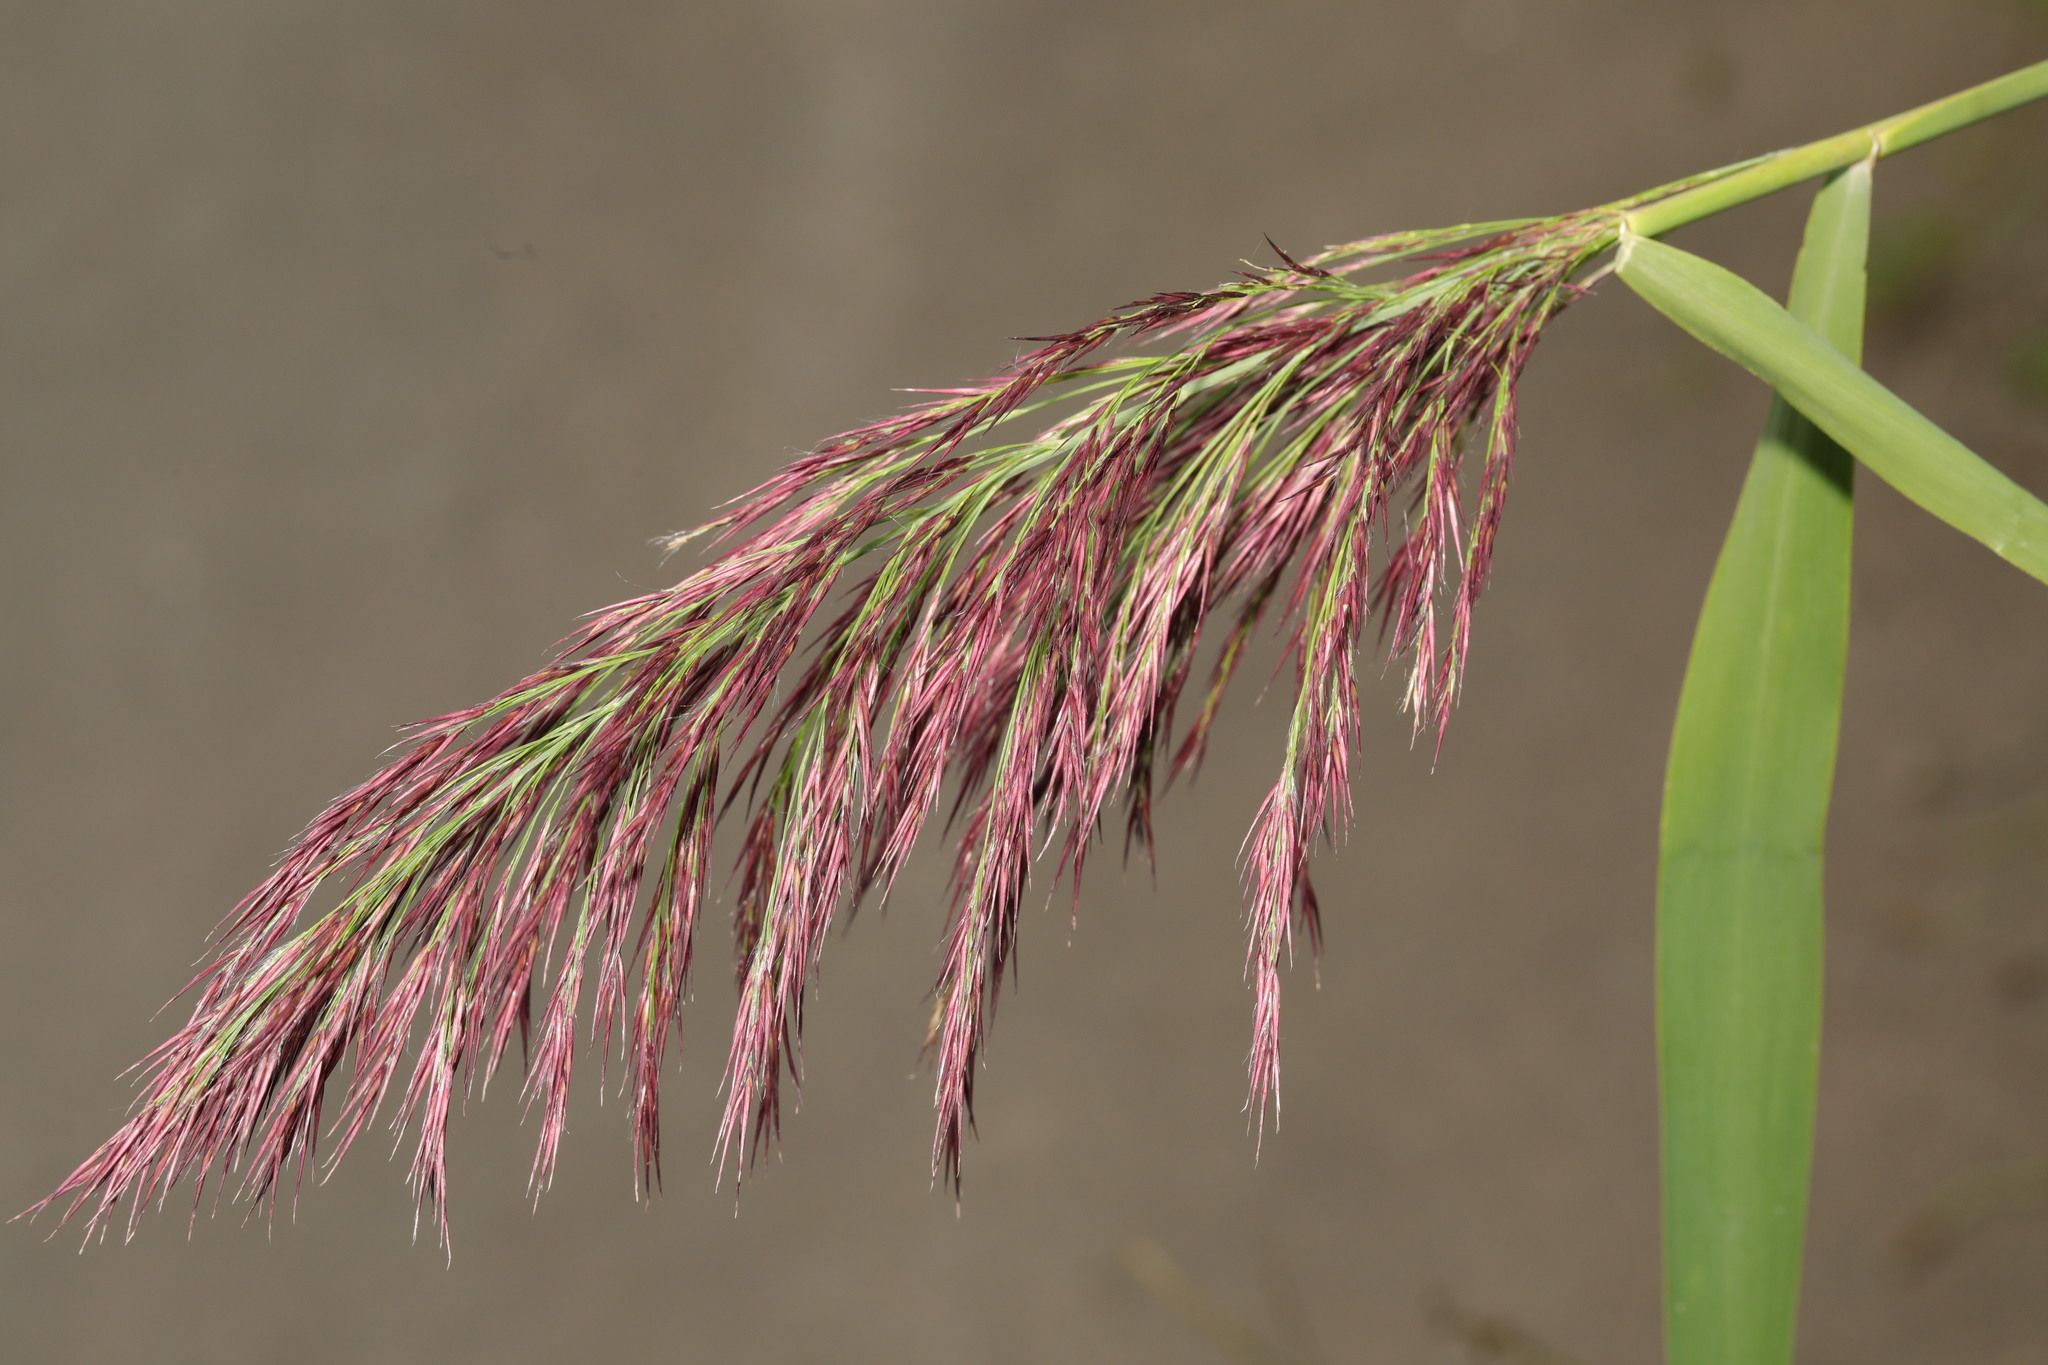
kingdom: Plantae
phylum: Tracheophyta
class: Liliopsida
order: Poales
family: Poaceae
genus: Phragmites
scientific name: Phragmites australis
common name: Common reed
